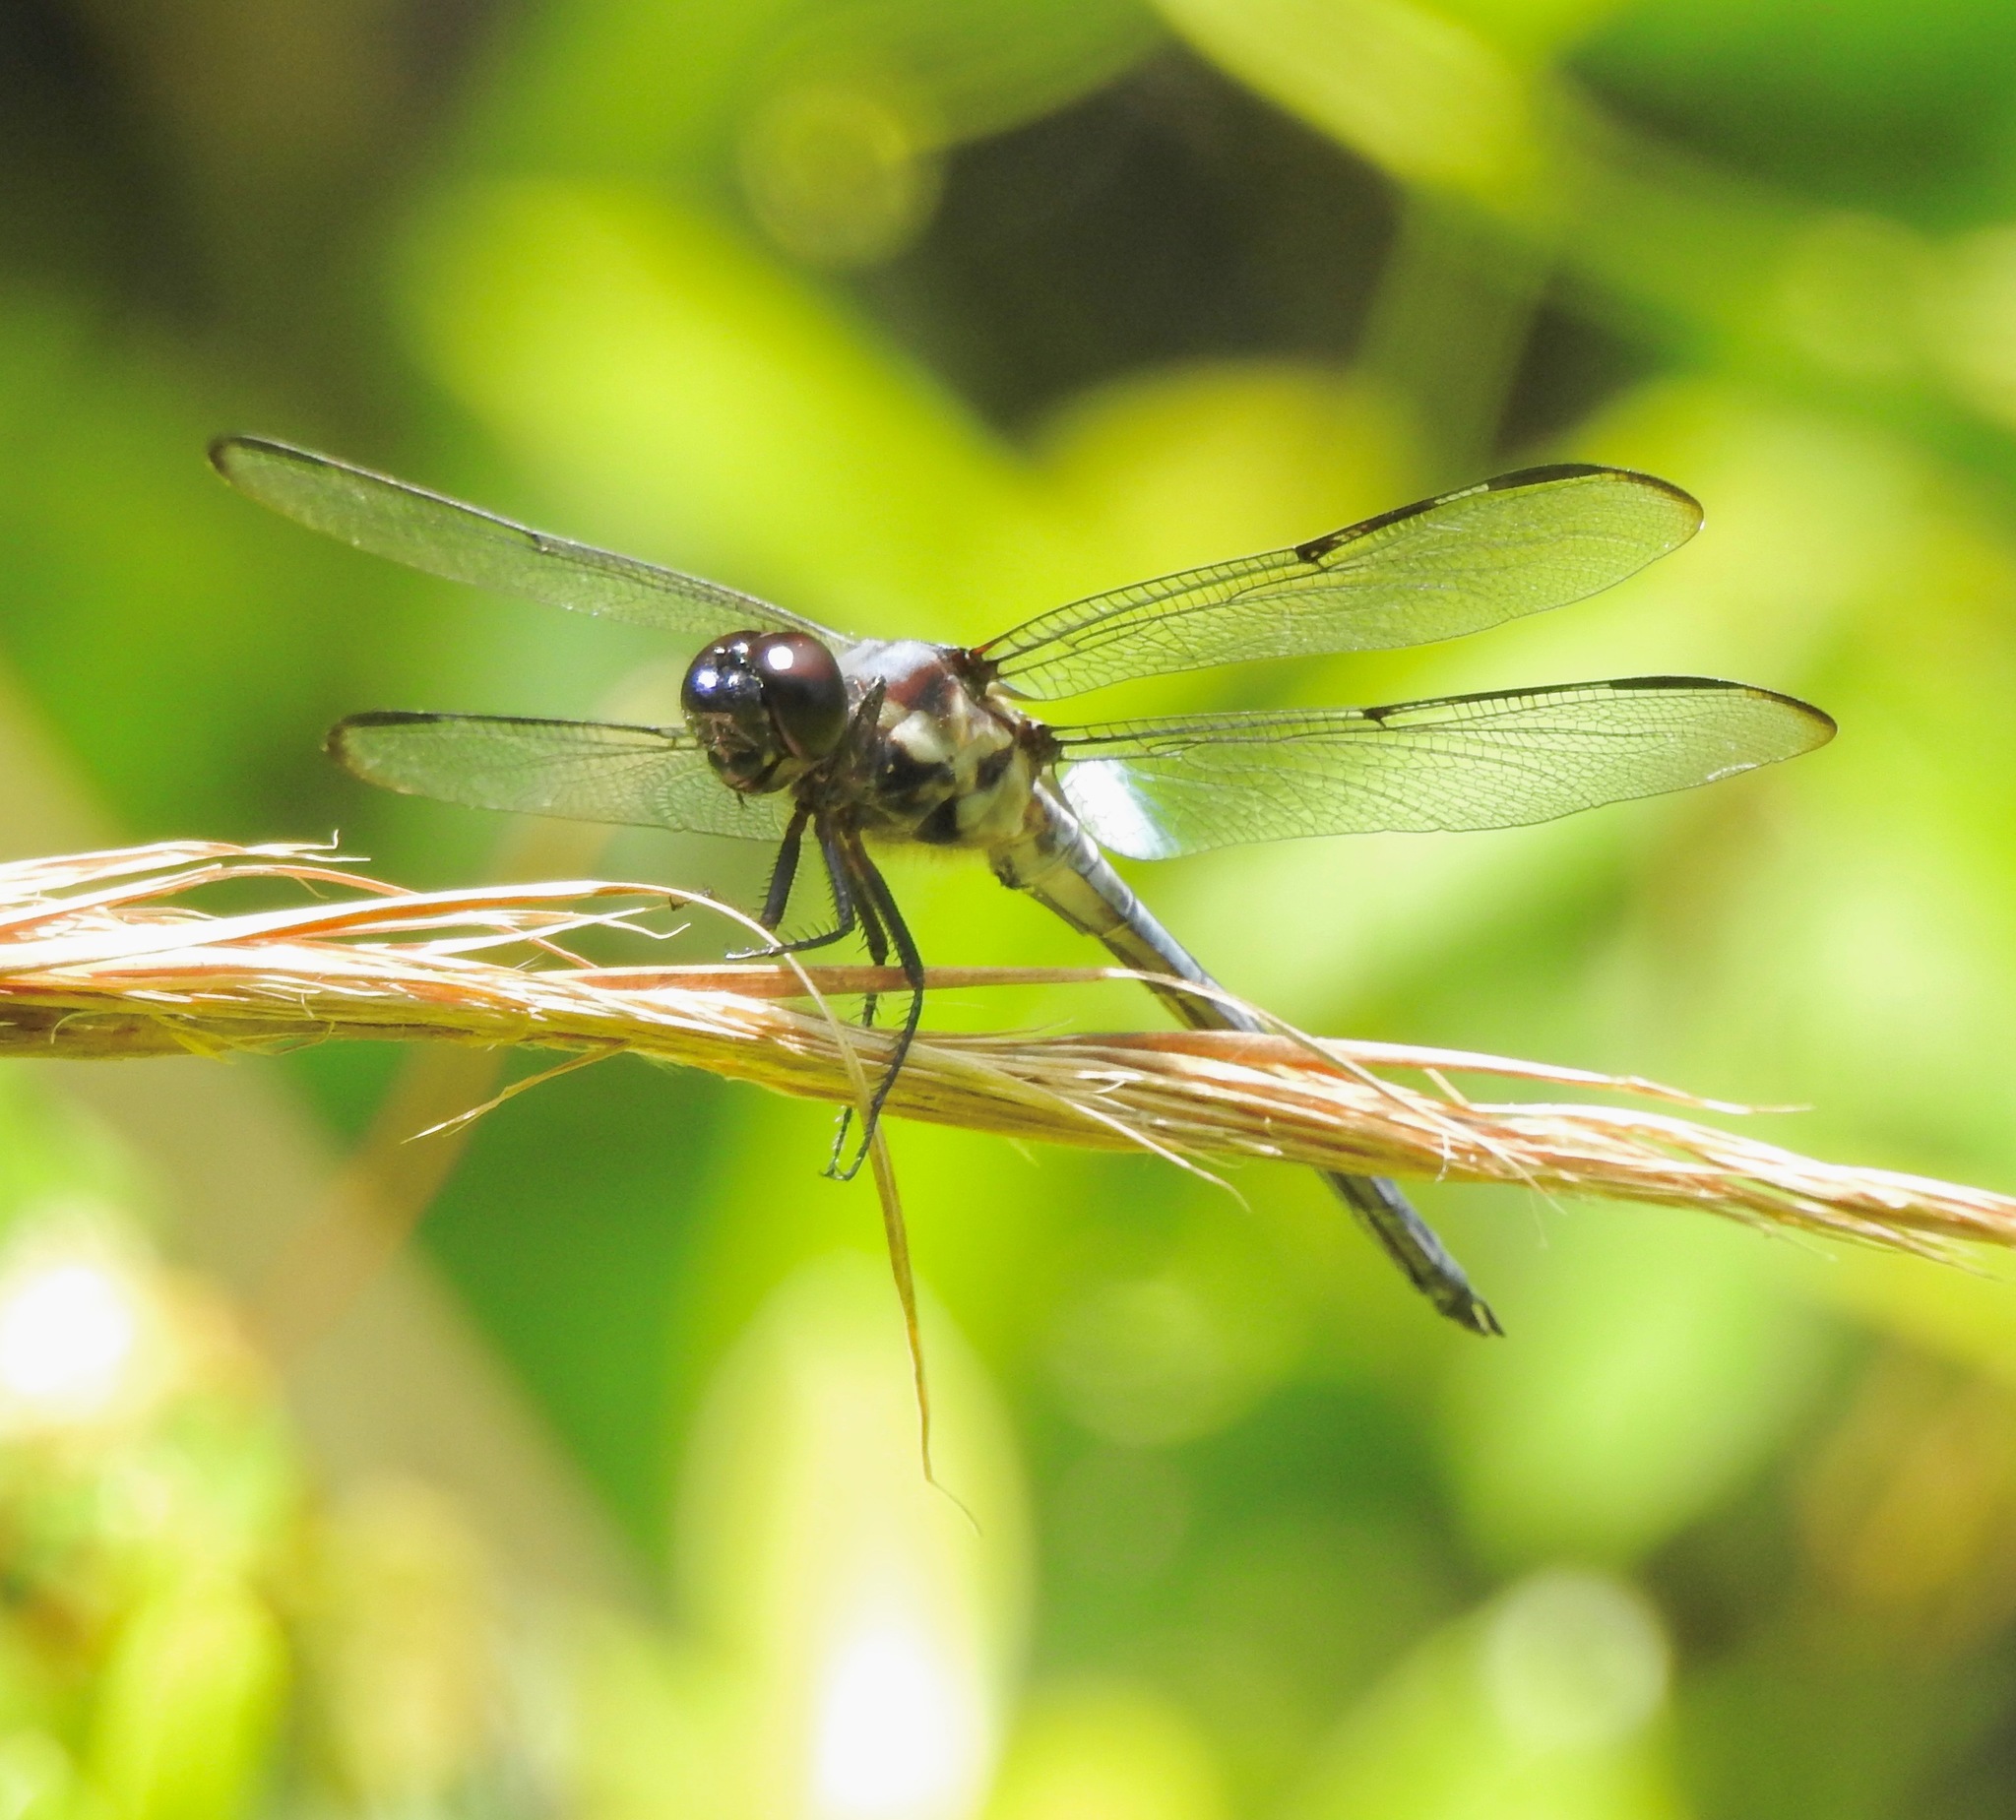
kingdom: Animalia
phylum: Arthropoda
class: Insecta
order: Odonata
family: Libellulidae
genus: Libellula
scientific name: Libellula axilena
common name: Bar-winged skimmer
